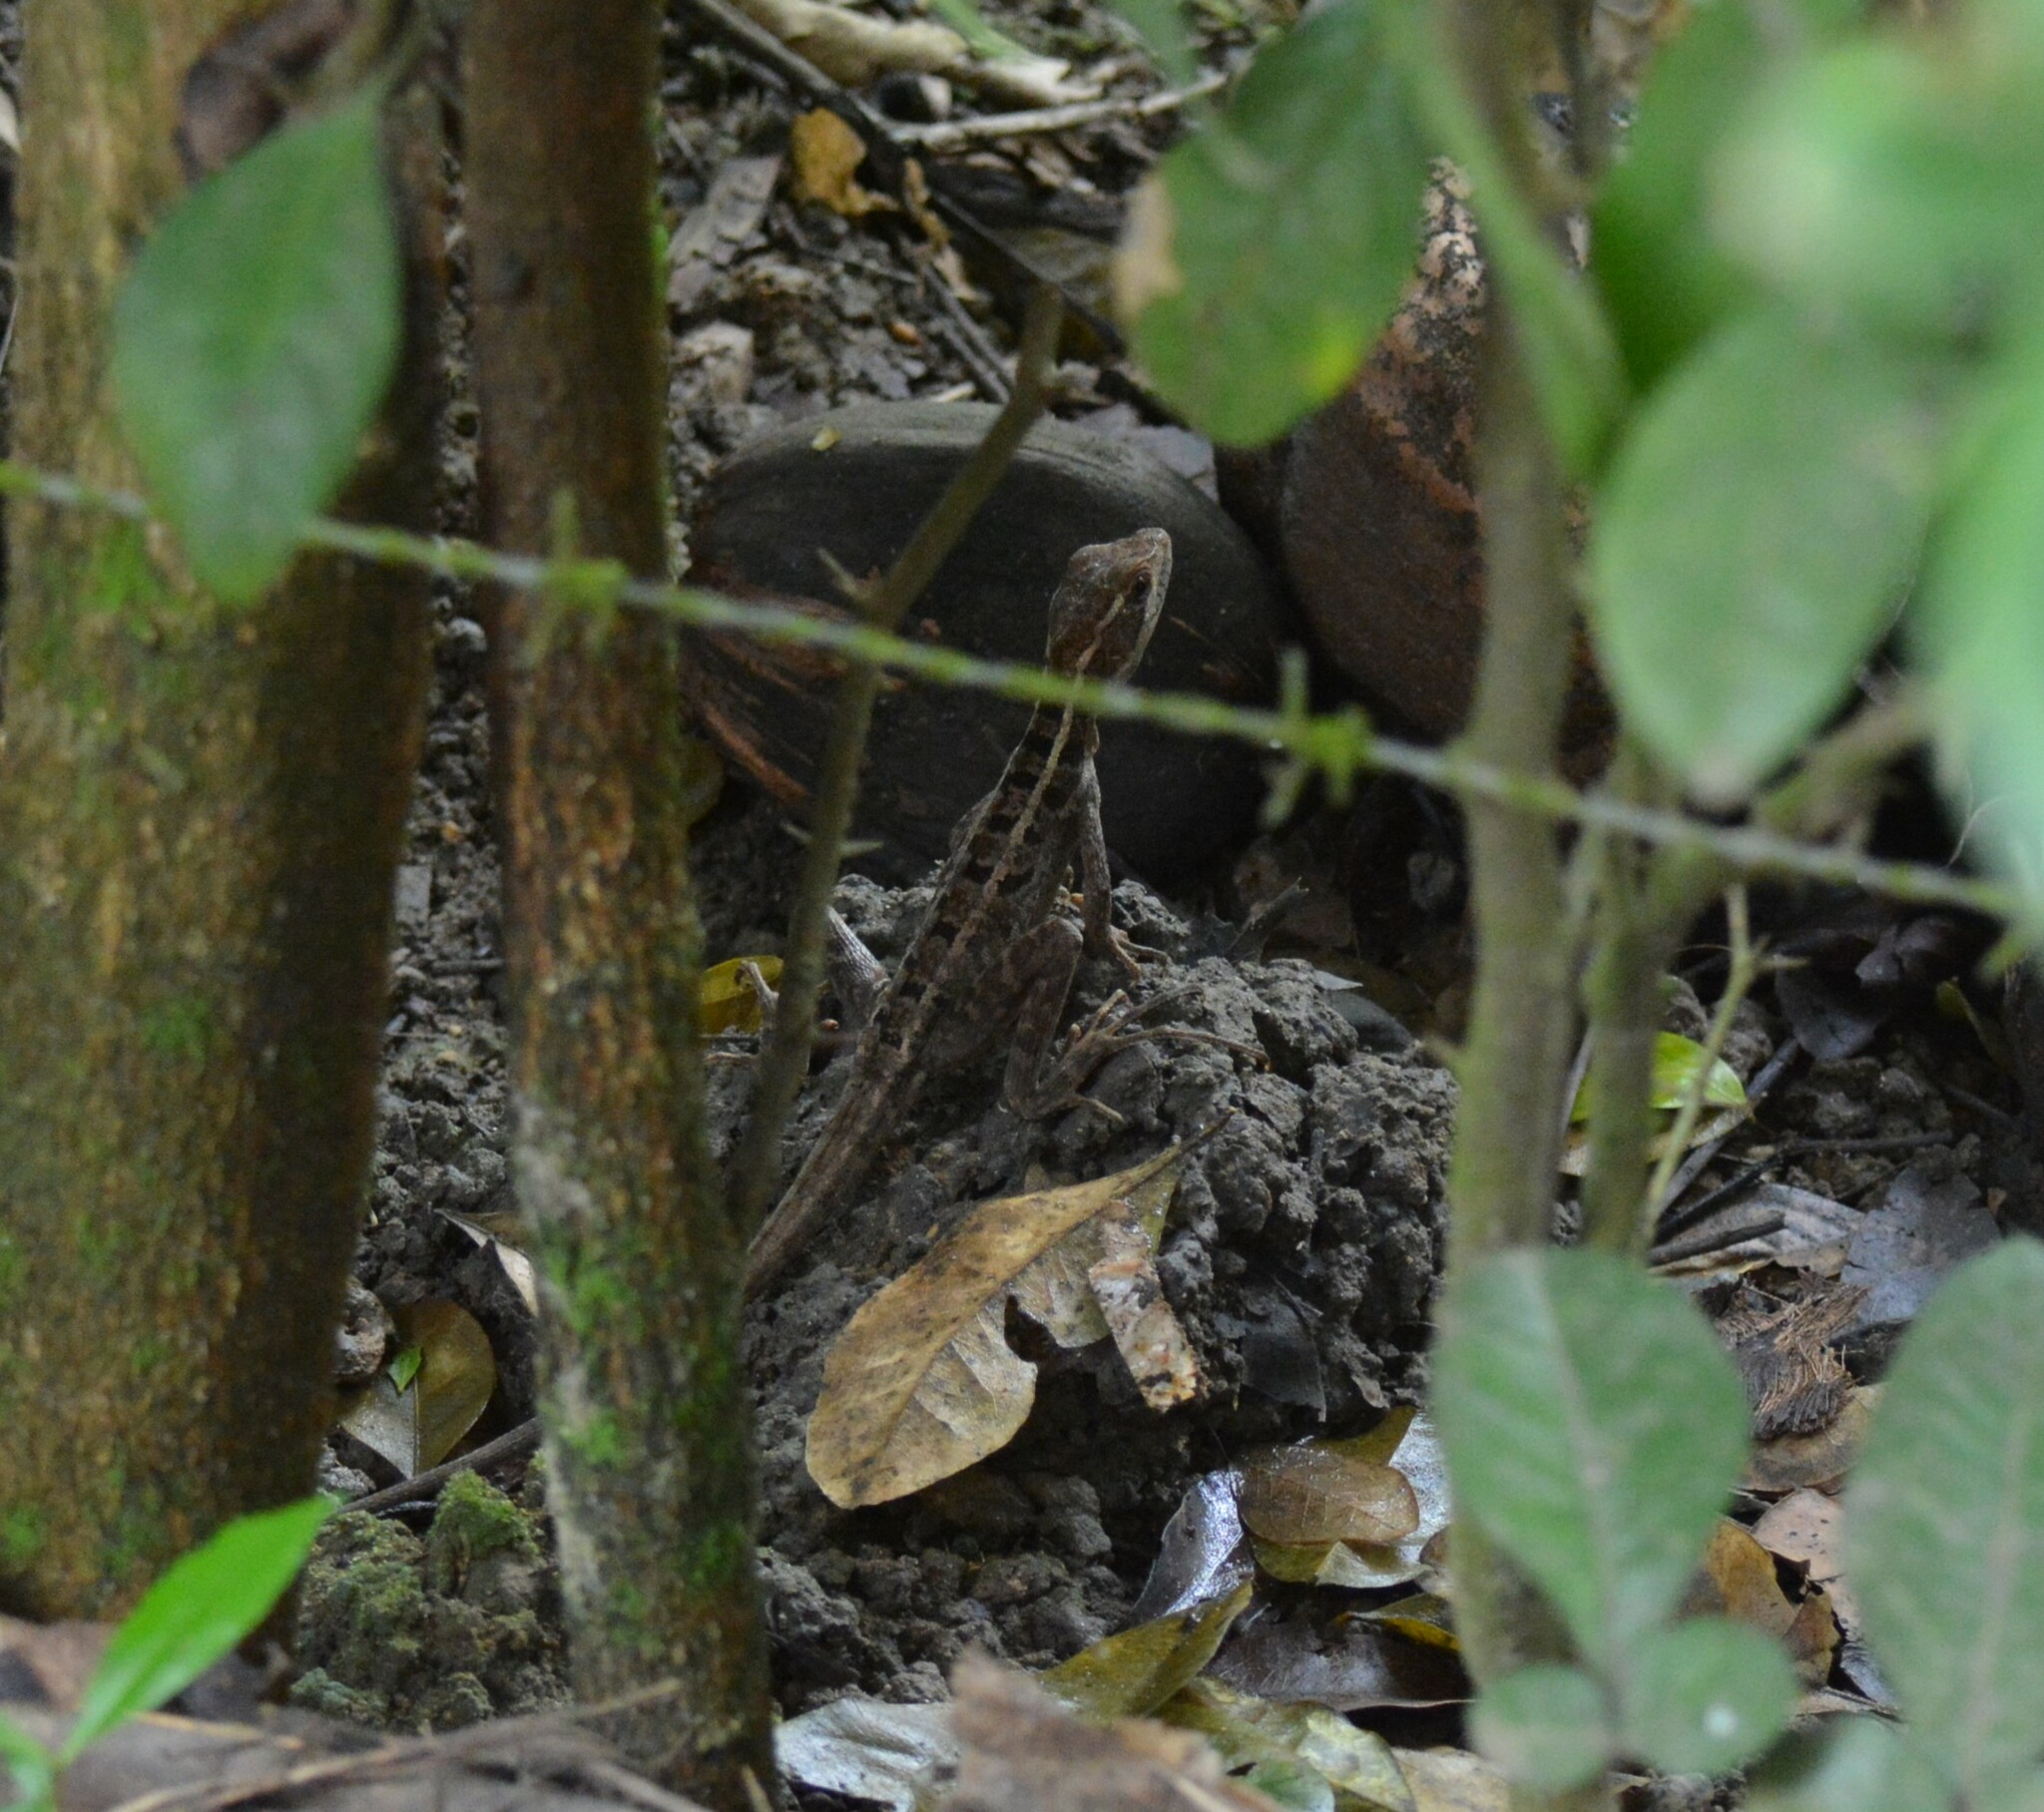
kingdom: Animalia
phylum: Chordata
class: Squamata
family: Corytophanidae
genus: Basiliscus
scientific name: Basiliscus vittatus
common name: Brown basilisk
